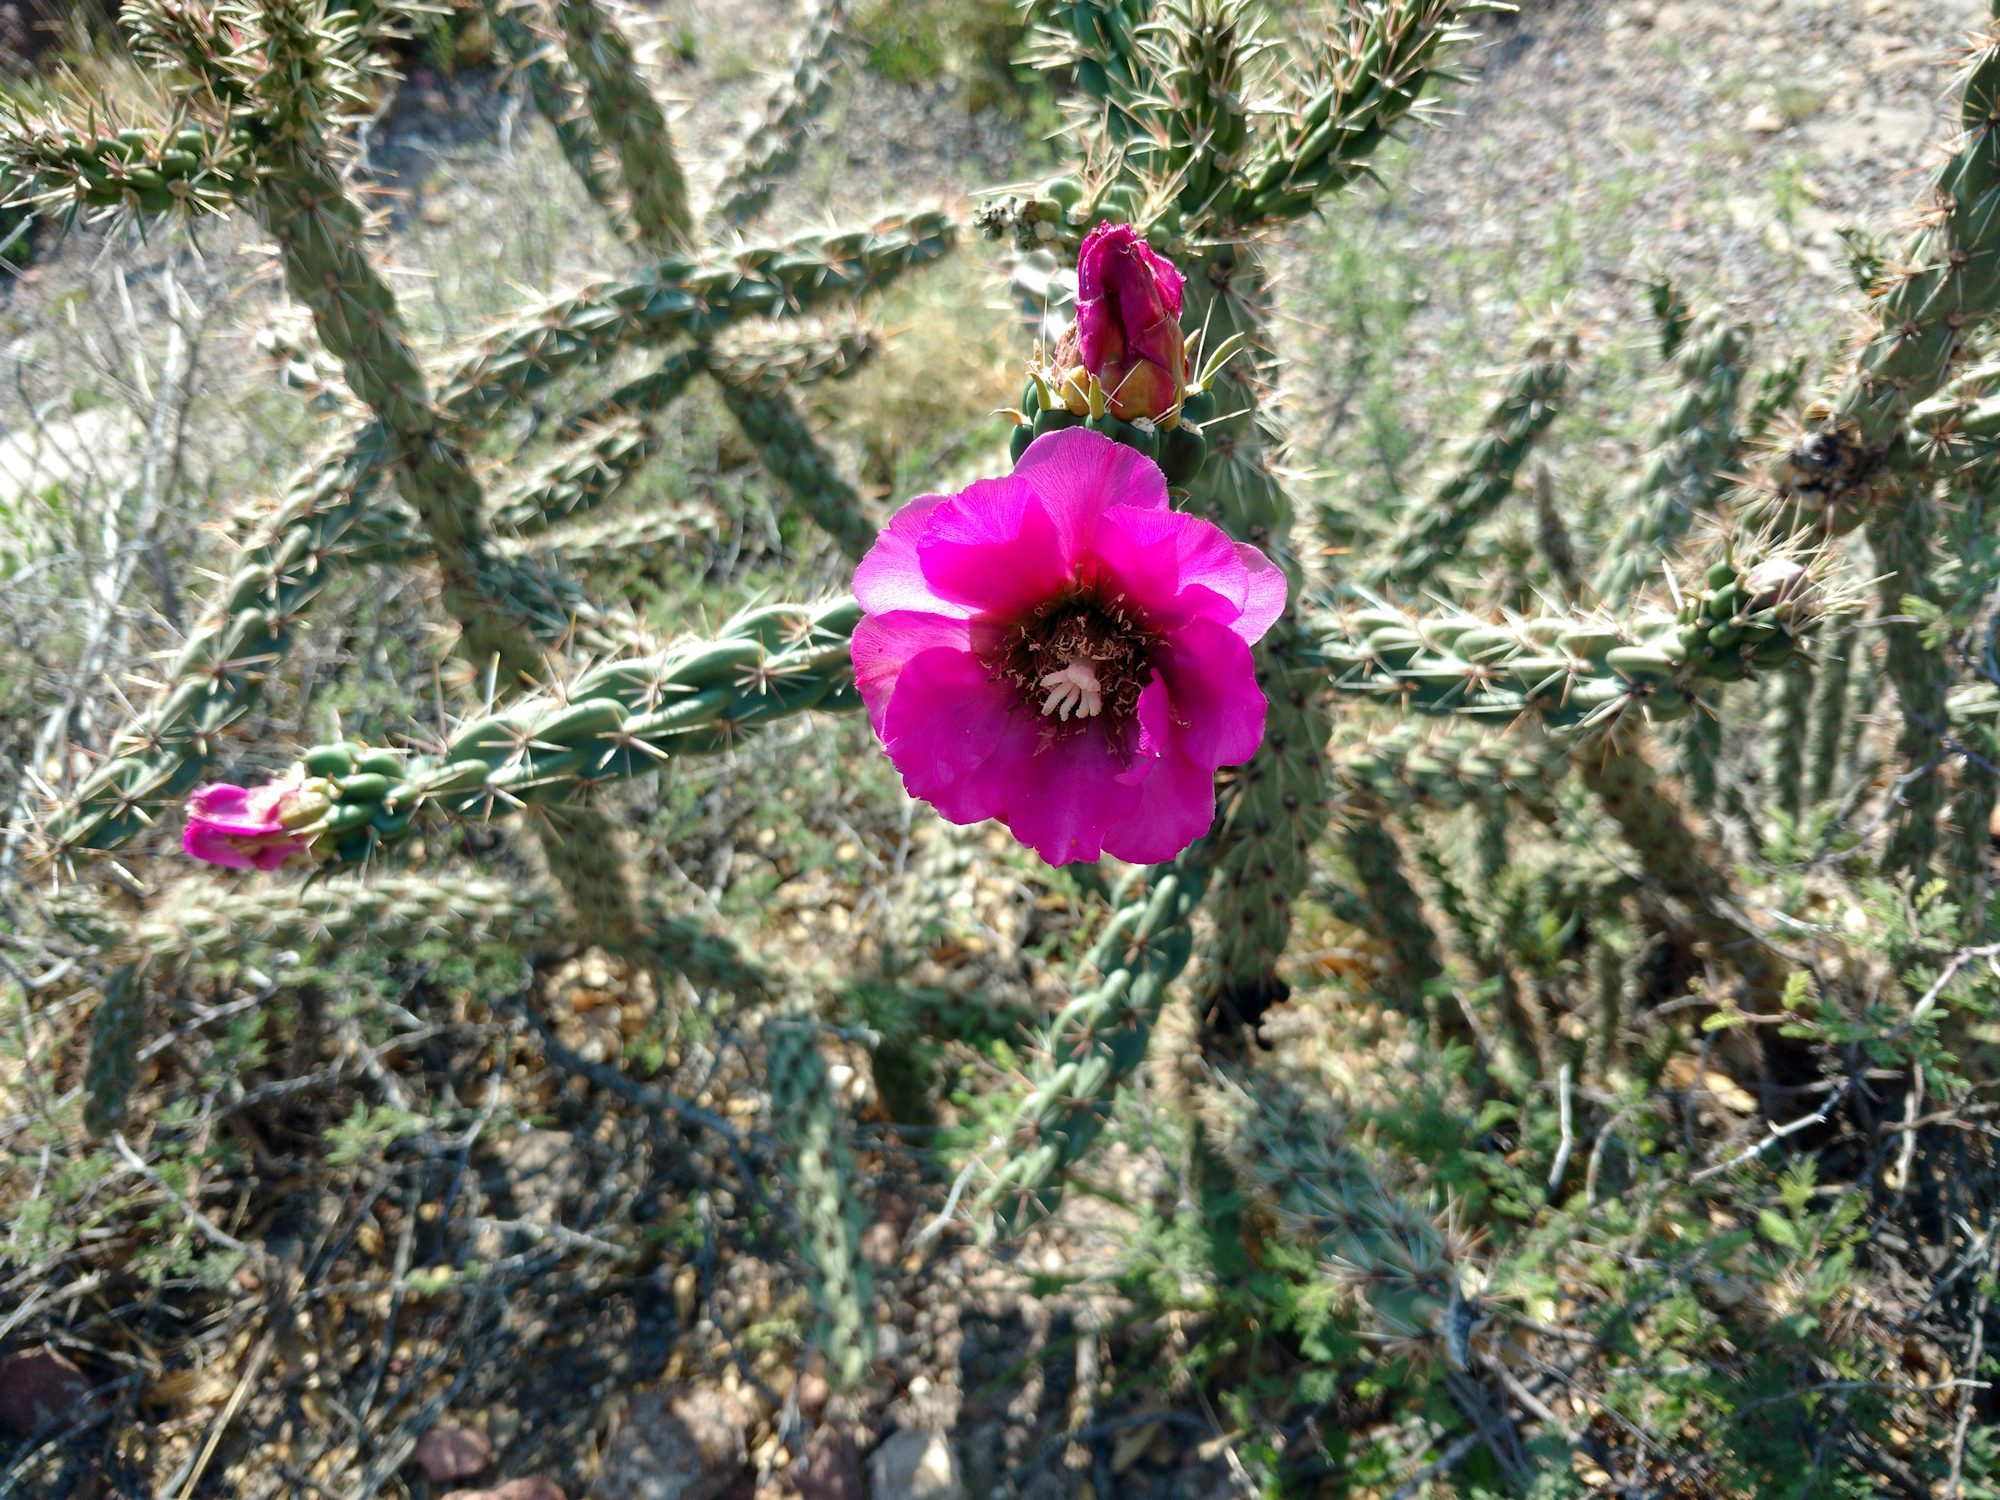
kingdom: Plantae
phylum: Tracheophyta
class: Magnoliopsida
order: Caryophyllales
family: Cactaceae
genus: Cylindropuntia
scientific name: Cylindropuntia imbricata
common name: Candelabrum cactus
